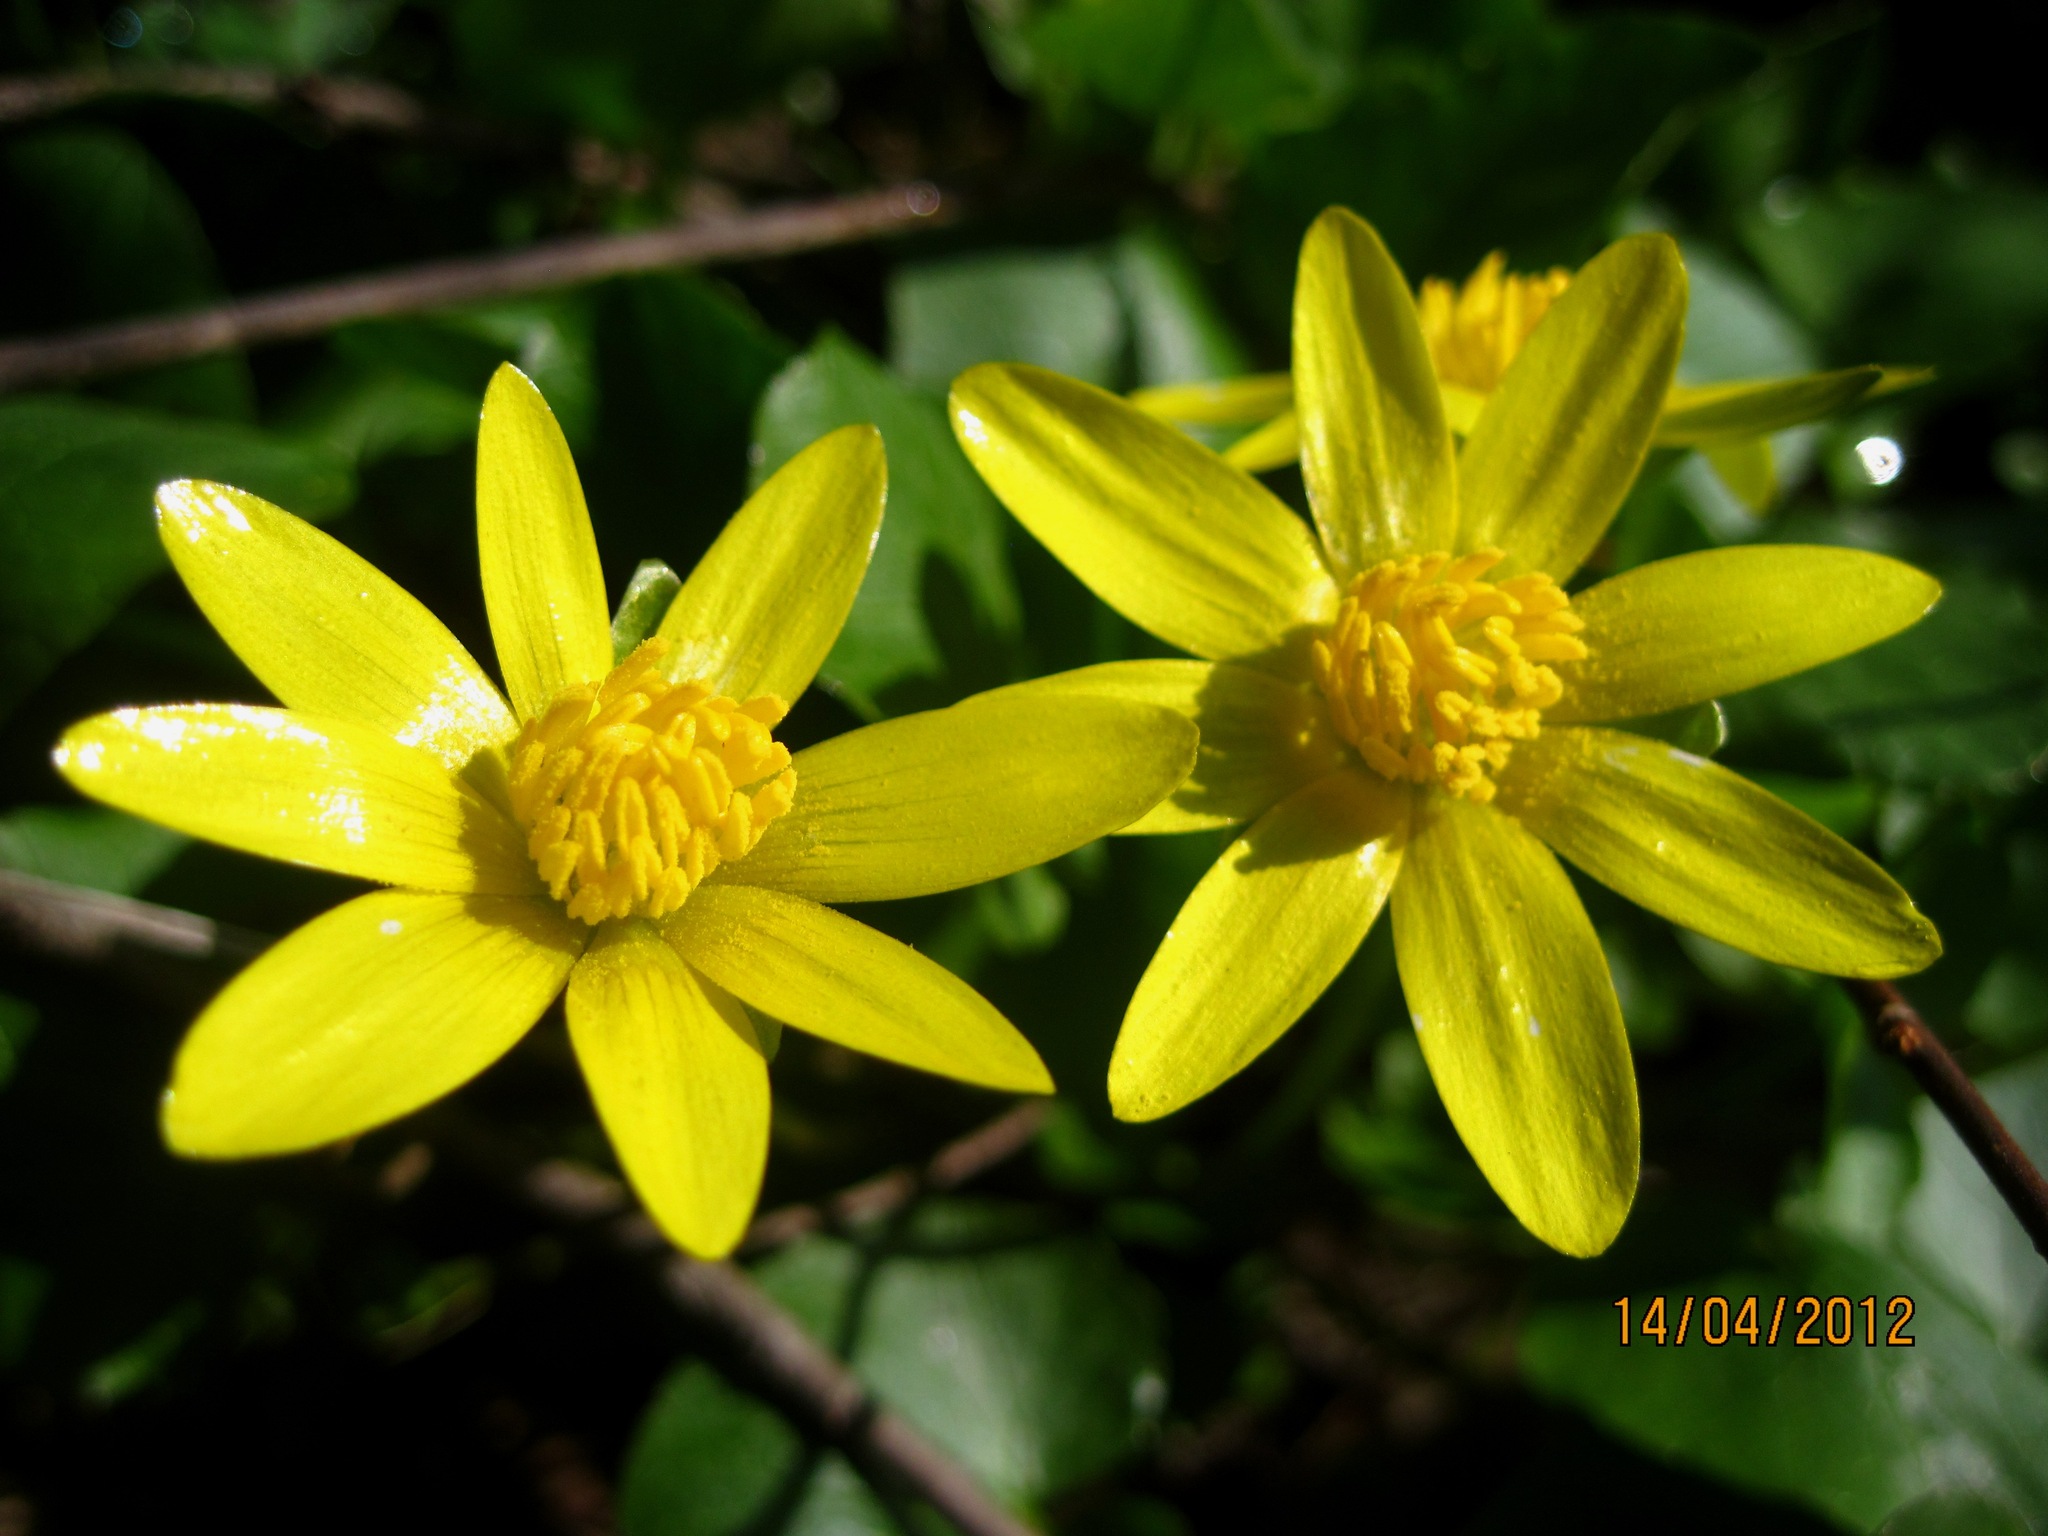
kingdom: Plantae
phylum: Tracheophyta
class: Magnoliopsida
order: Ranunculales
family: Ranunculaceae
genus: Ficaria
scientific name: Ficaria verna
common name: Lesser celandine
